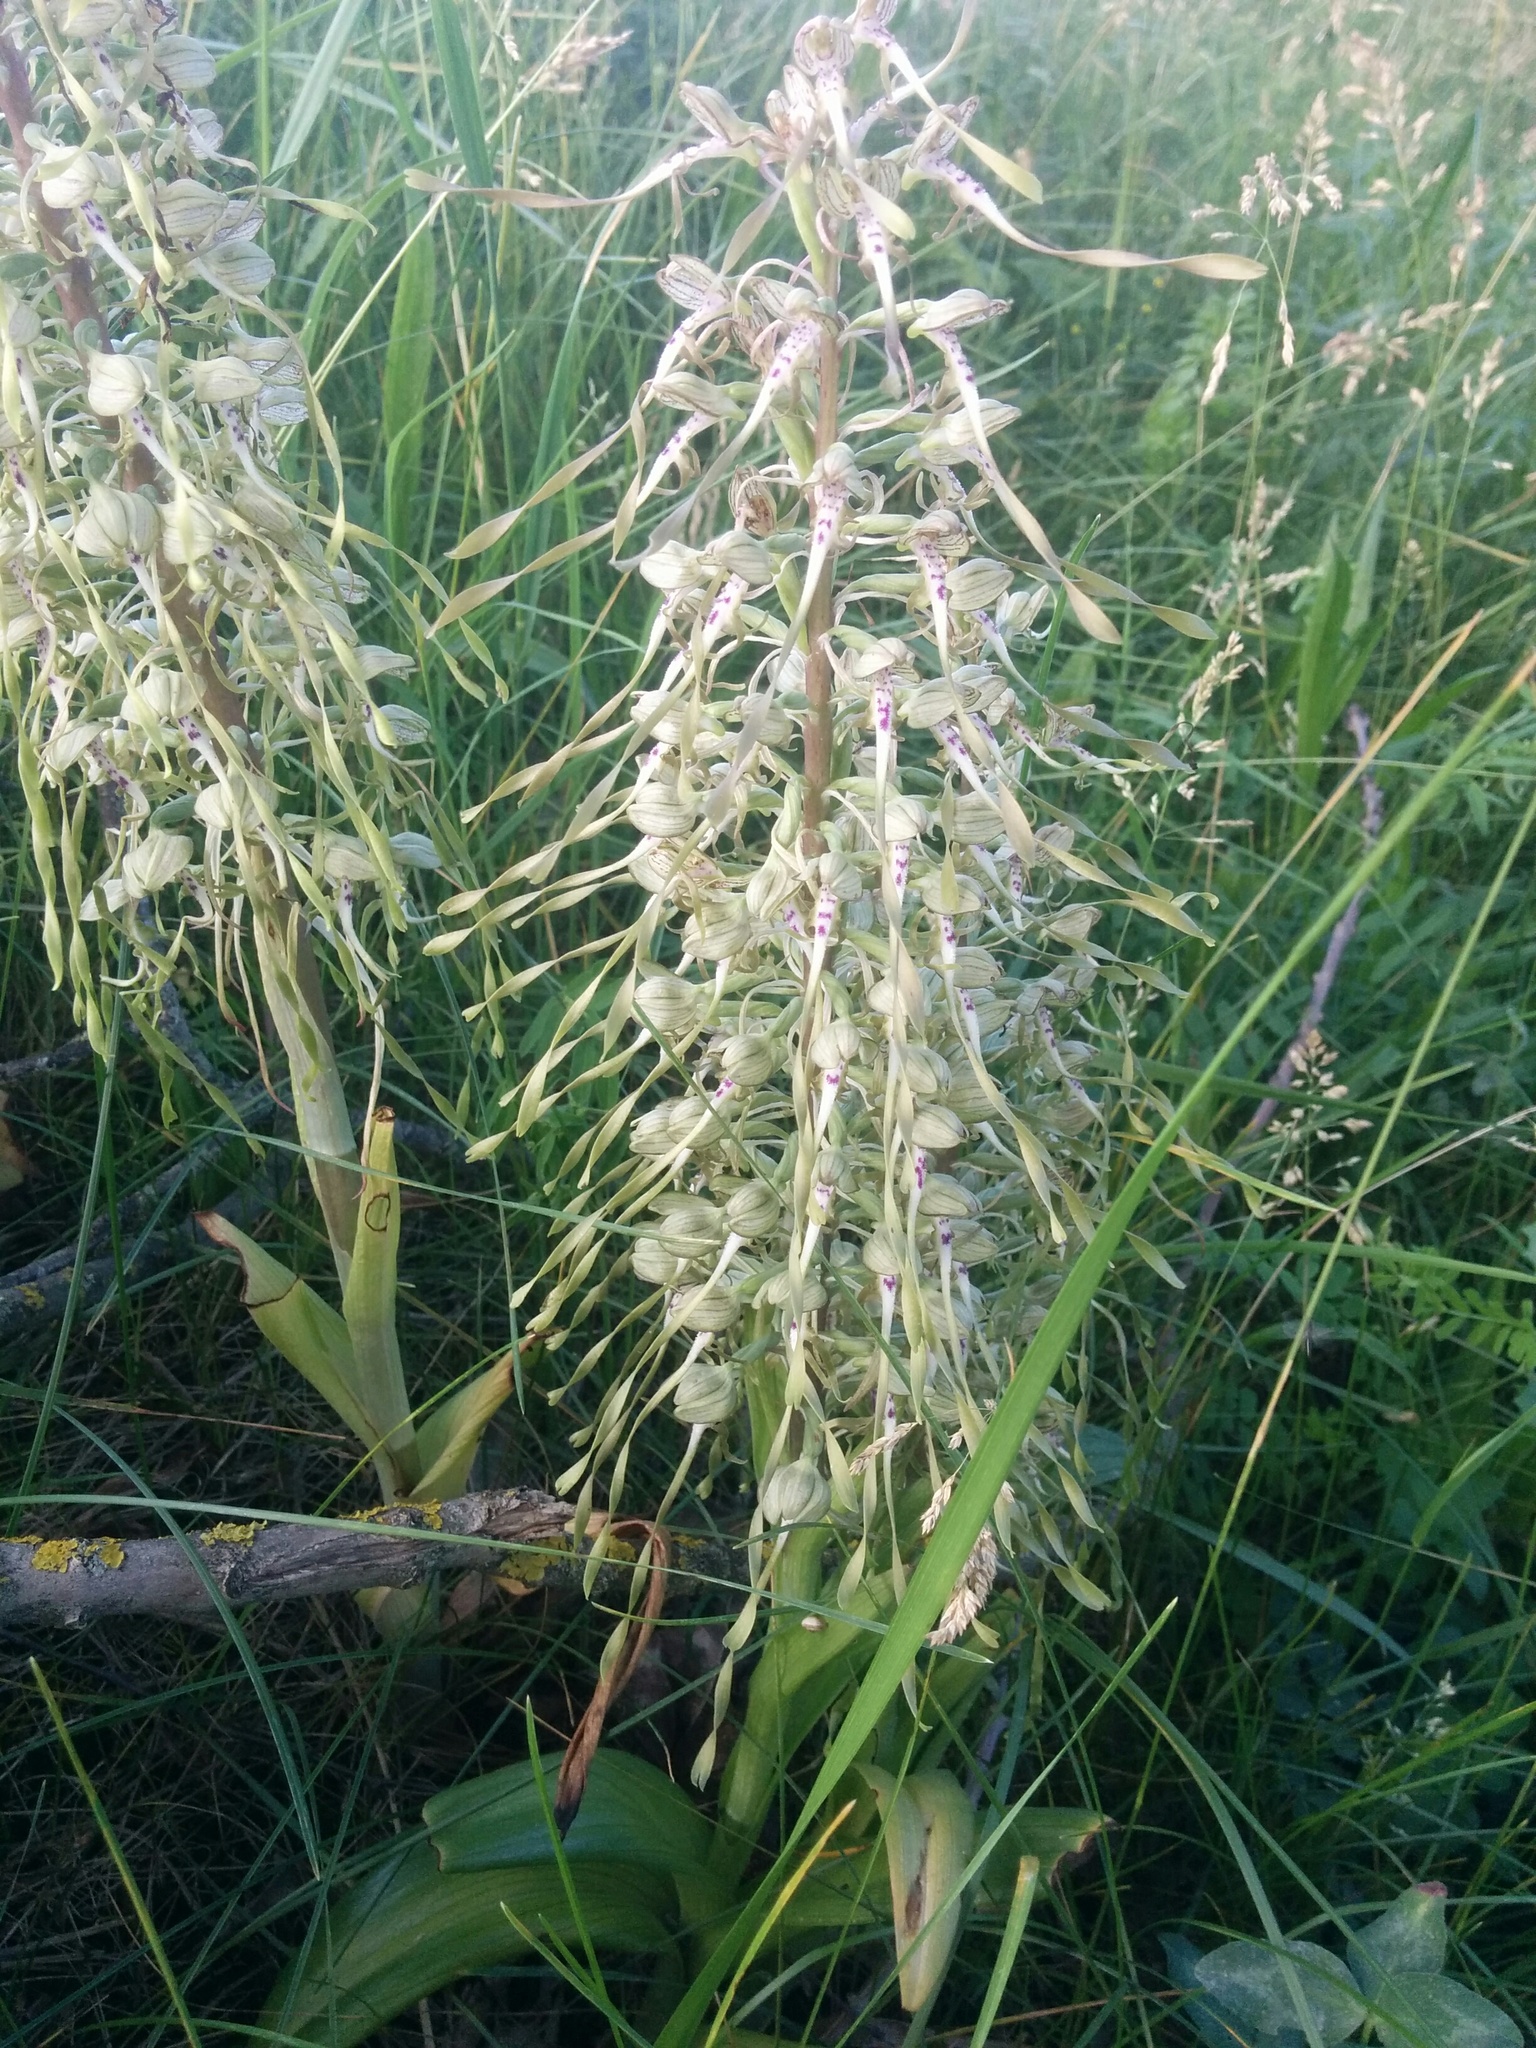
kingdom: Plantae
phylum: Tracheophyta
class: Liliopsida
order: Asparagales
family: Orchidaceae
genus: Himantoglossum
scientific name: Himantoglossum hircinum
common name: Lizard orchid
